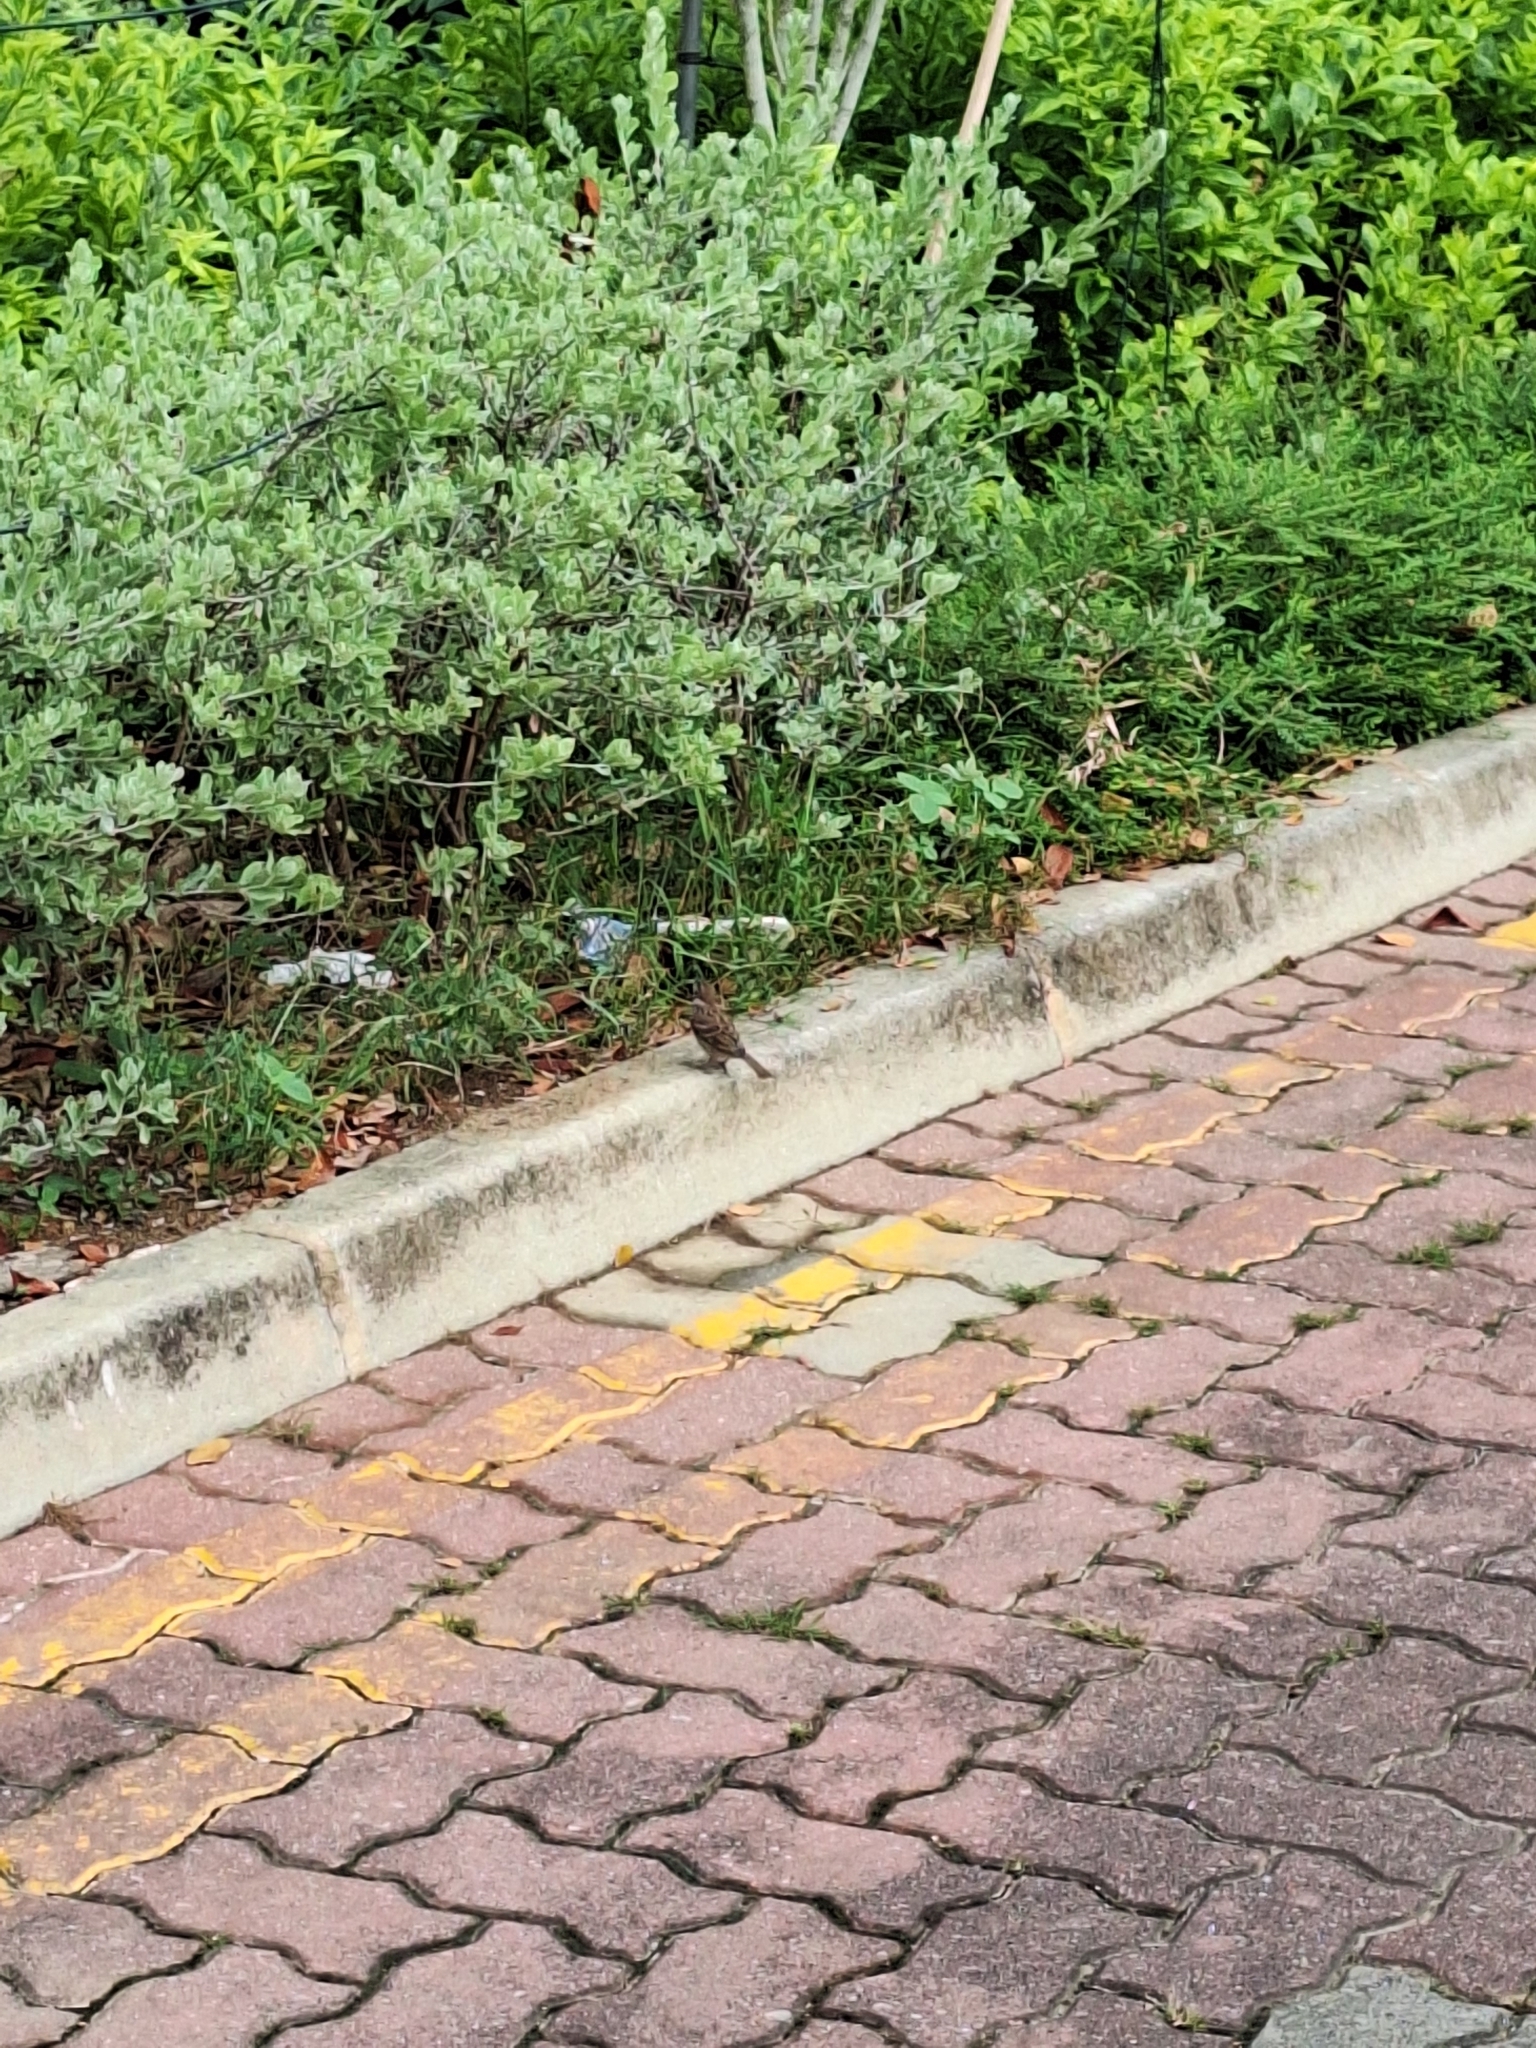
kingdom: Animalia
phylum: Chordata
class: Aves
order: Passeriformes
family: Passeridae
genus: Passer
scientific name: Passer montanus
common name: Eurasian tree sparrow
